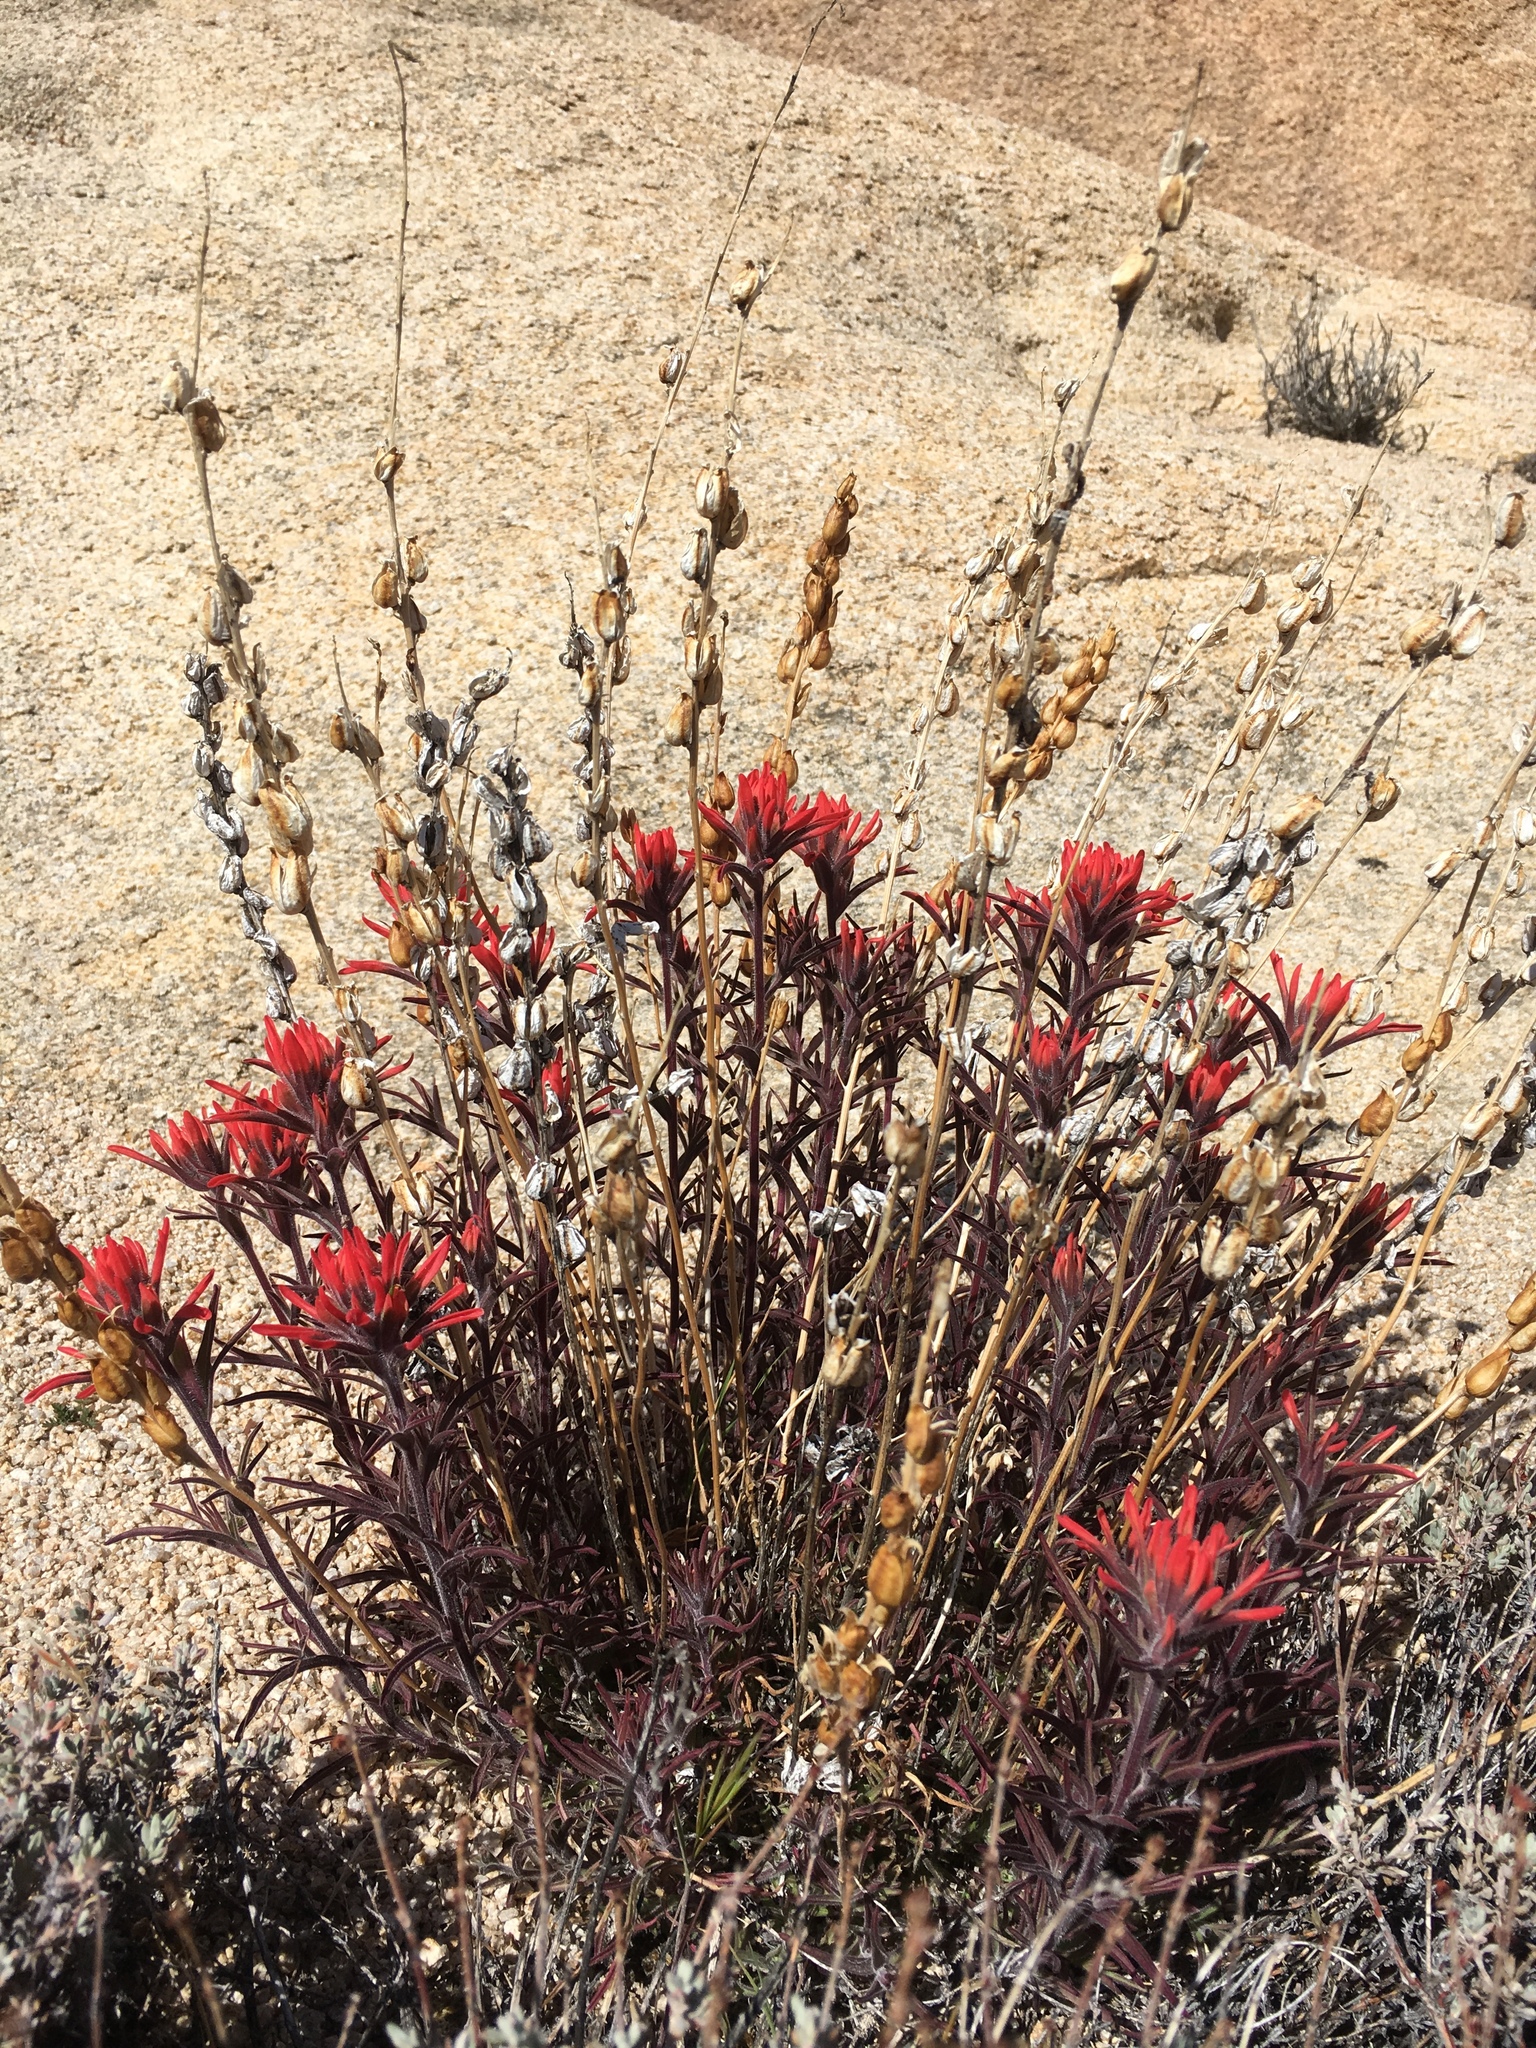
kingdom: Plantae
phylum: Tracheophyta
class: Magnoliopsida
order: Lamiales
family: Orobanchaceae
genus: Castilleja
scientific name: Castilleja chromosa
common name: Desert paintbrush
